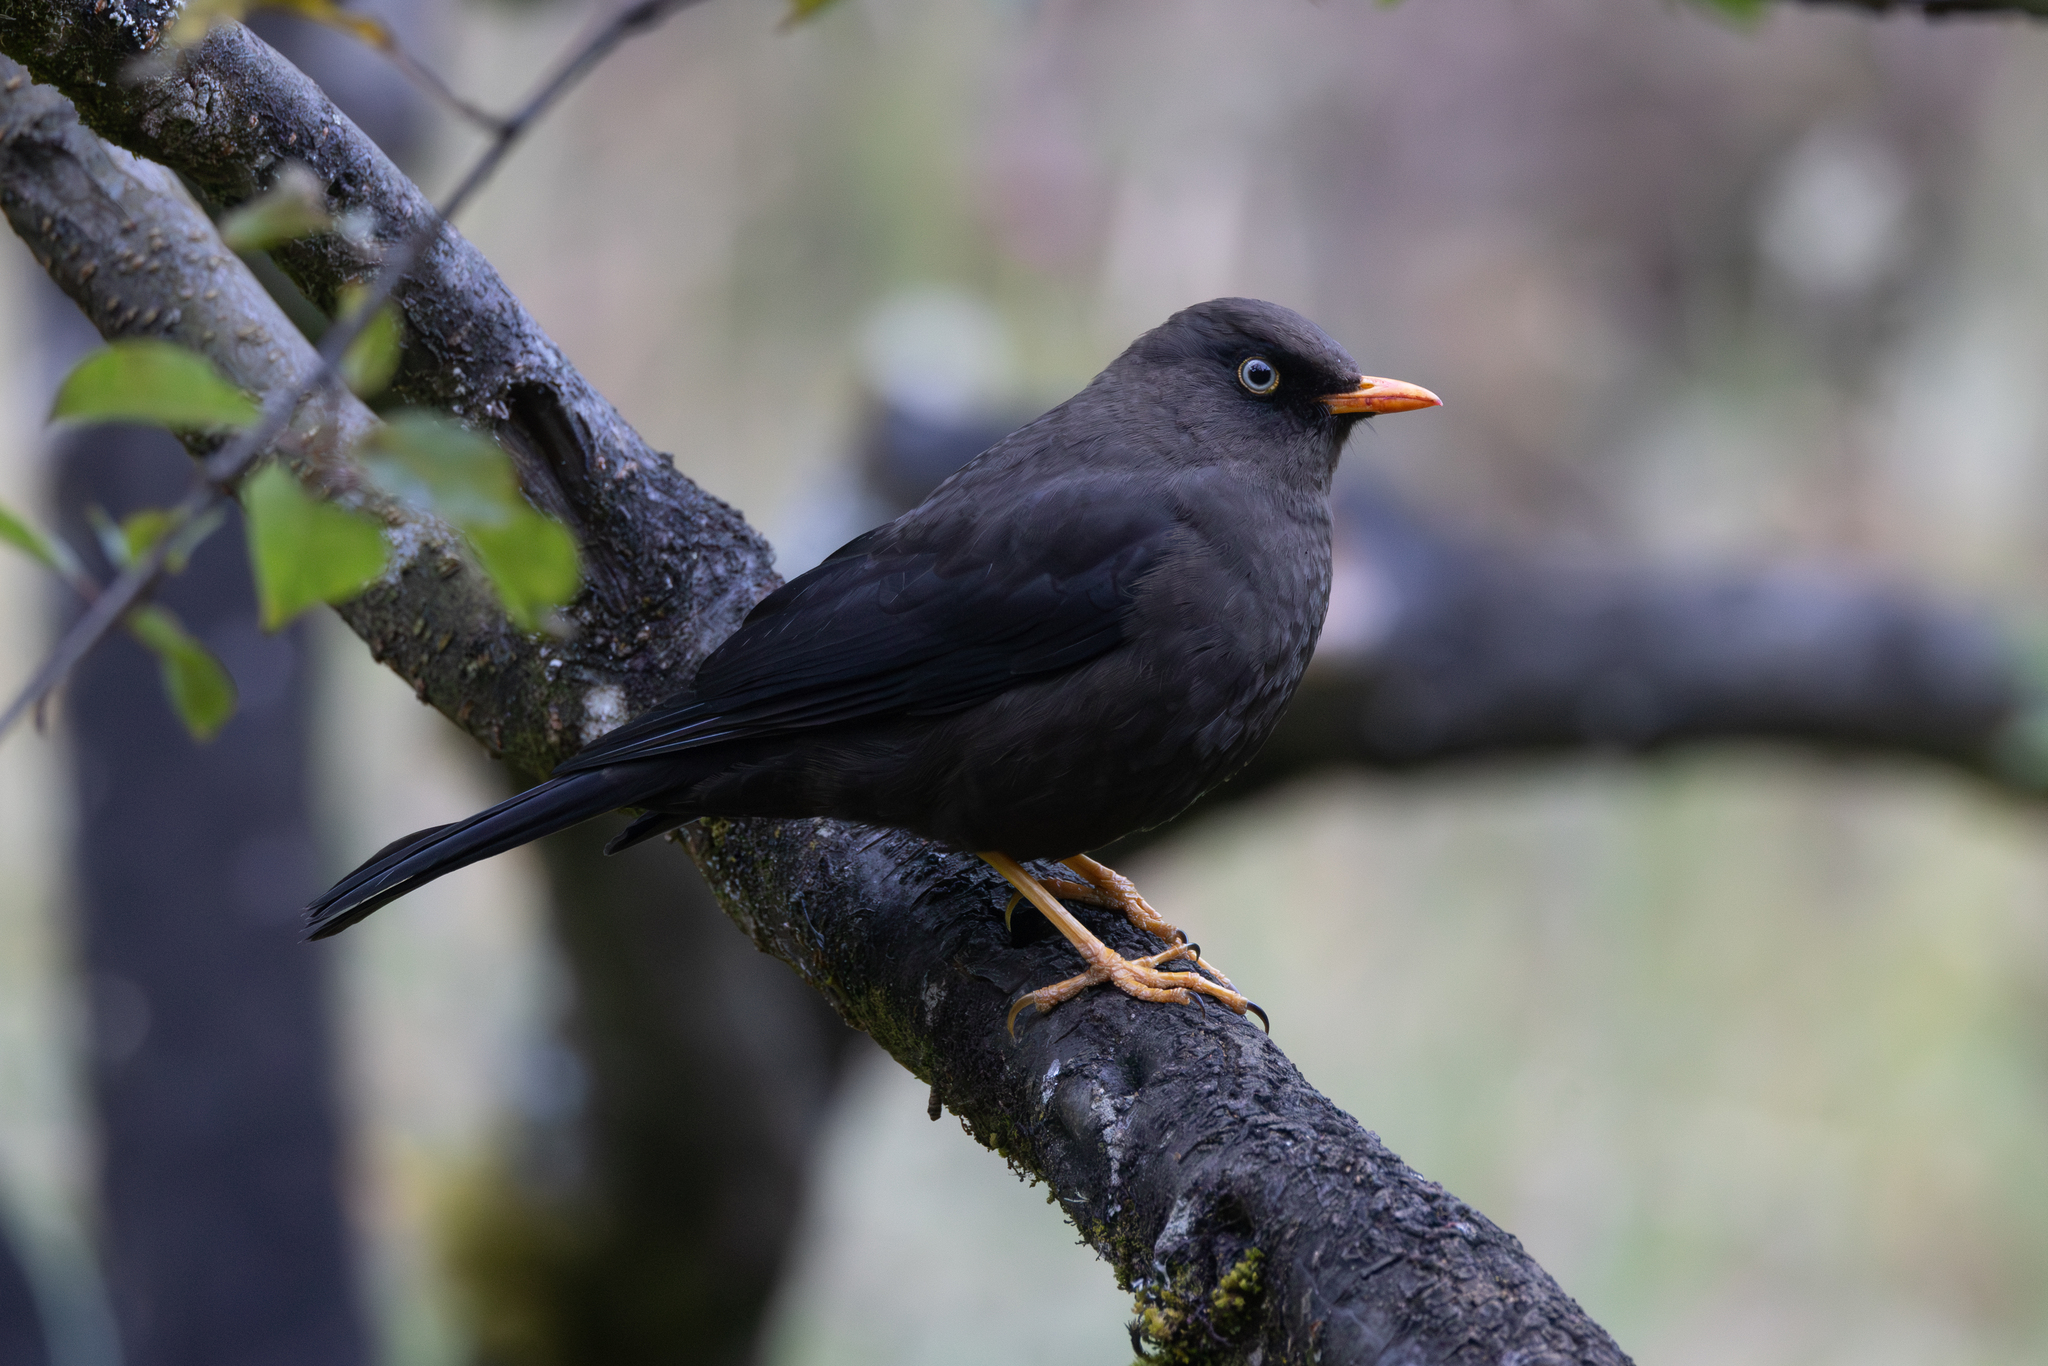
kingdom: Animalia
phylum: Chordata
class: Aves
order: Passeriformes
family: Turdidae
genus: Turdus
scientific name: Turdus nigrescens
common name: Sooty thrush
